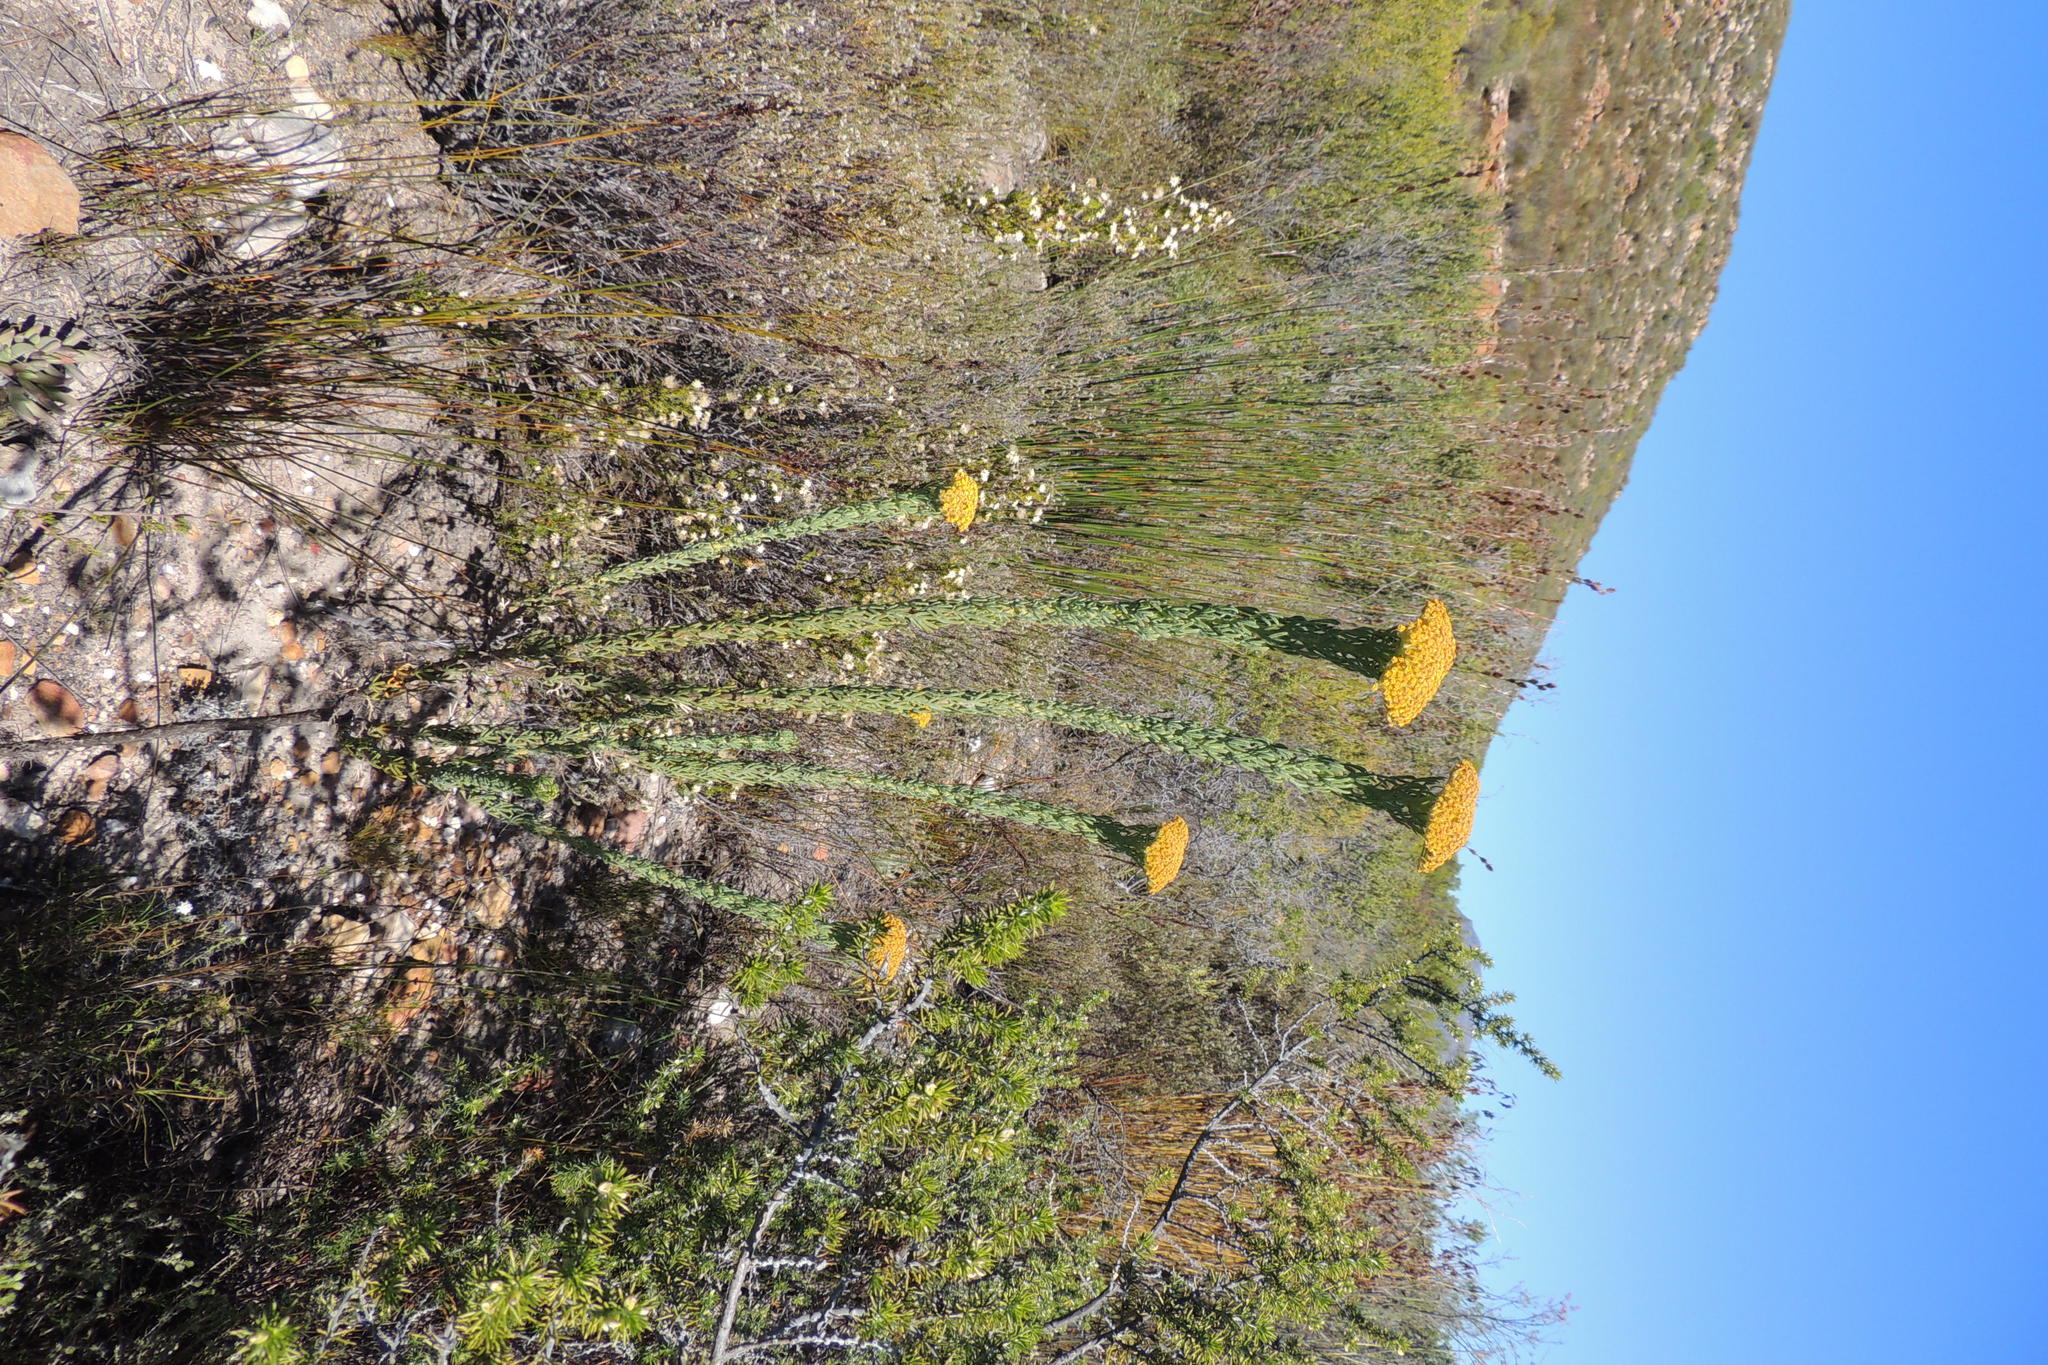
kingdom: Plantae
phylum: Tracheophyta
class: Magnoliopsida
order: Asterales
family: Asteraceae
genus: Hymenolepis
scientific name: Hymenolepis incisa
